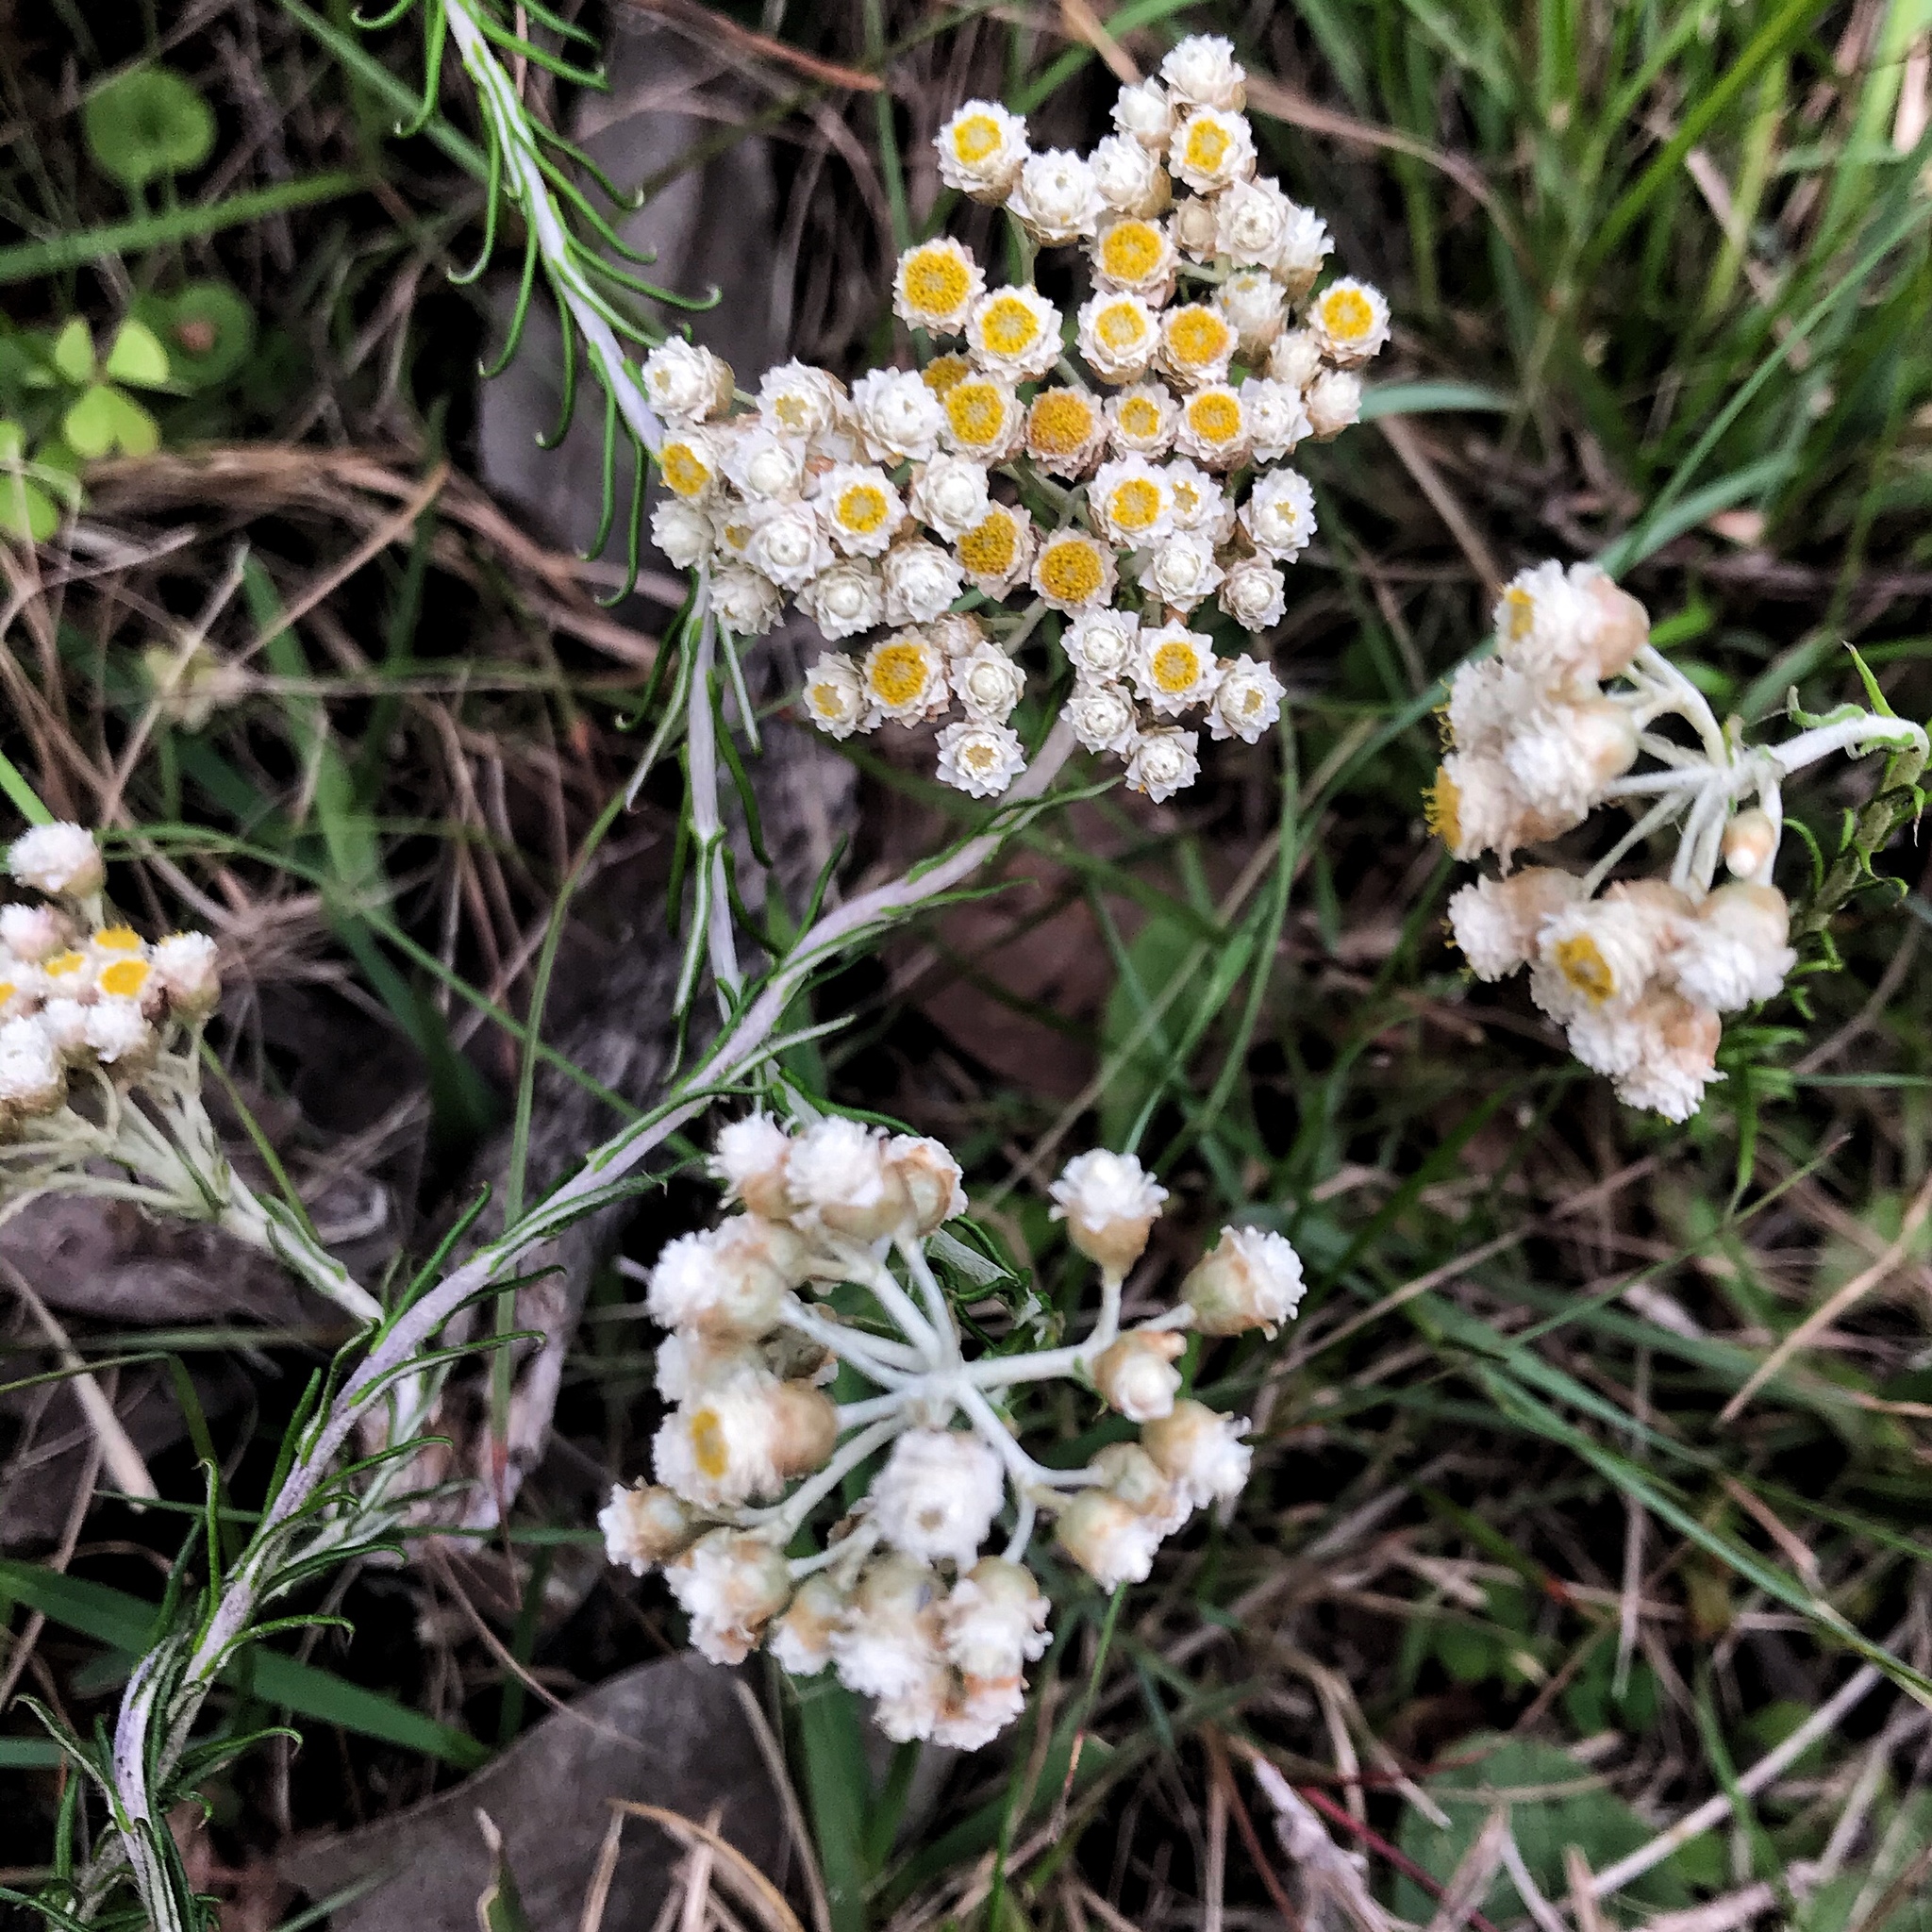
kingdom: Plantae
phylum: Tracheophyta
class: Magnoliopsida
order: Asterales
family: Asteraceae
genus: Helichrysum
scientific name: Helichrysum teretifolium
